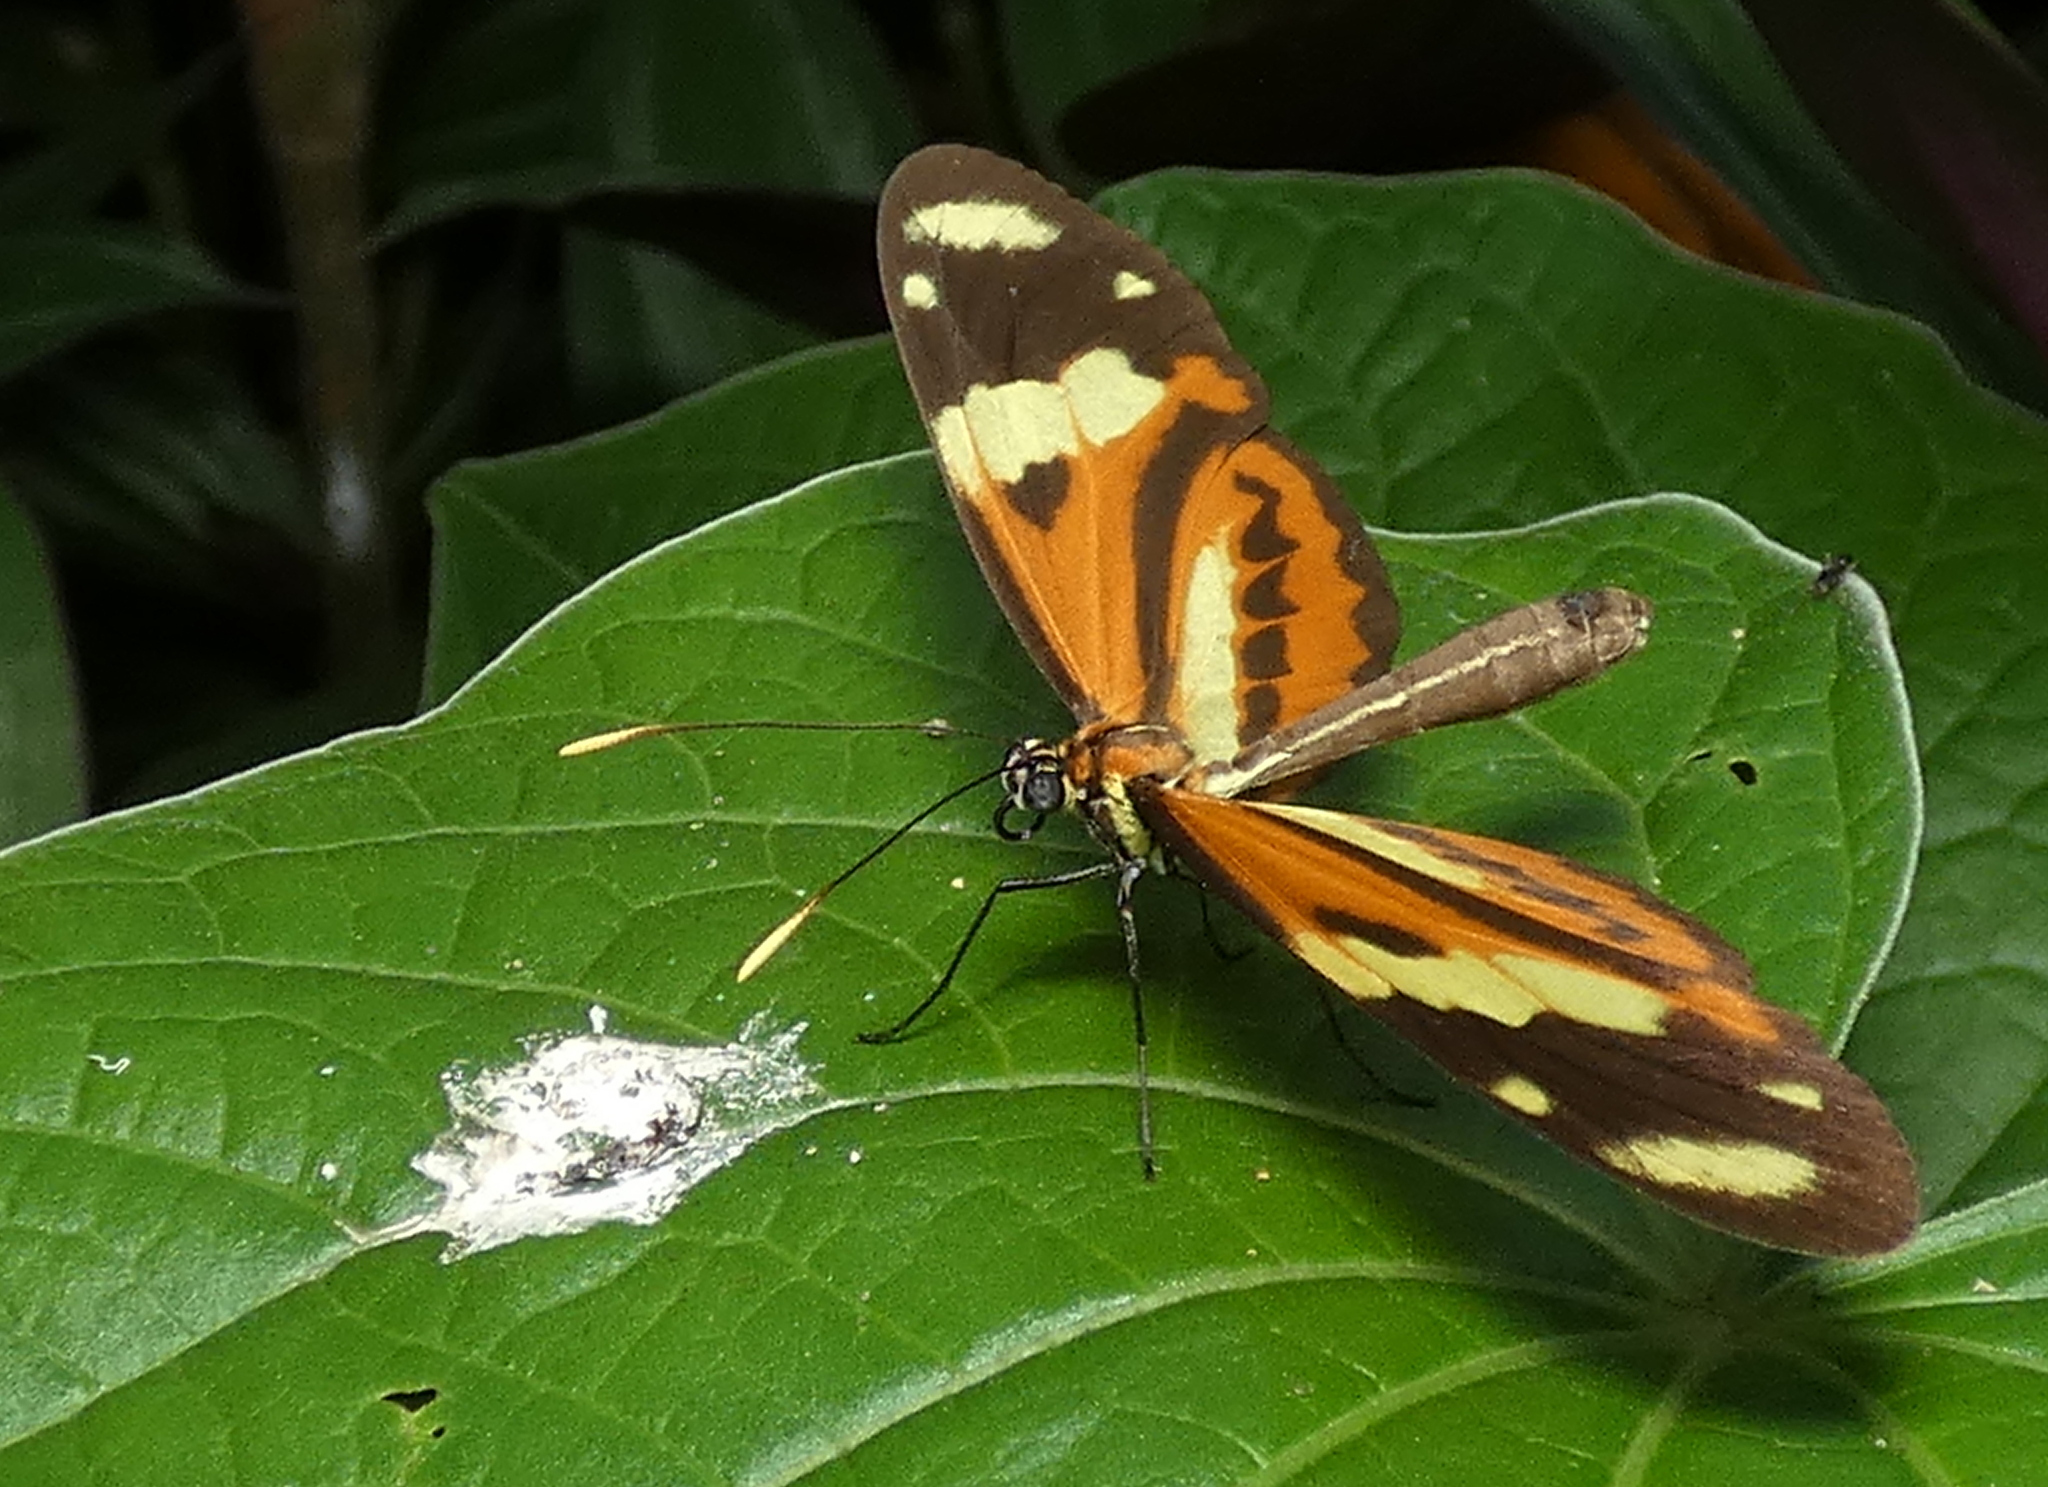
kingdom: Animalia
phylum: Arthropoda
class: Insecta
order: Lepidoptera
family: Nymphalidae
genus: Mechanitis
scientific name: Mechanitis lysimnia
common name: Lysimnia tigerwing
